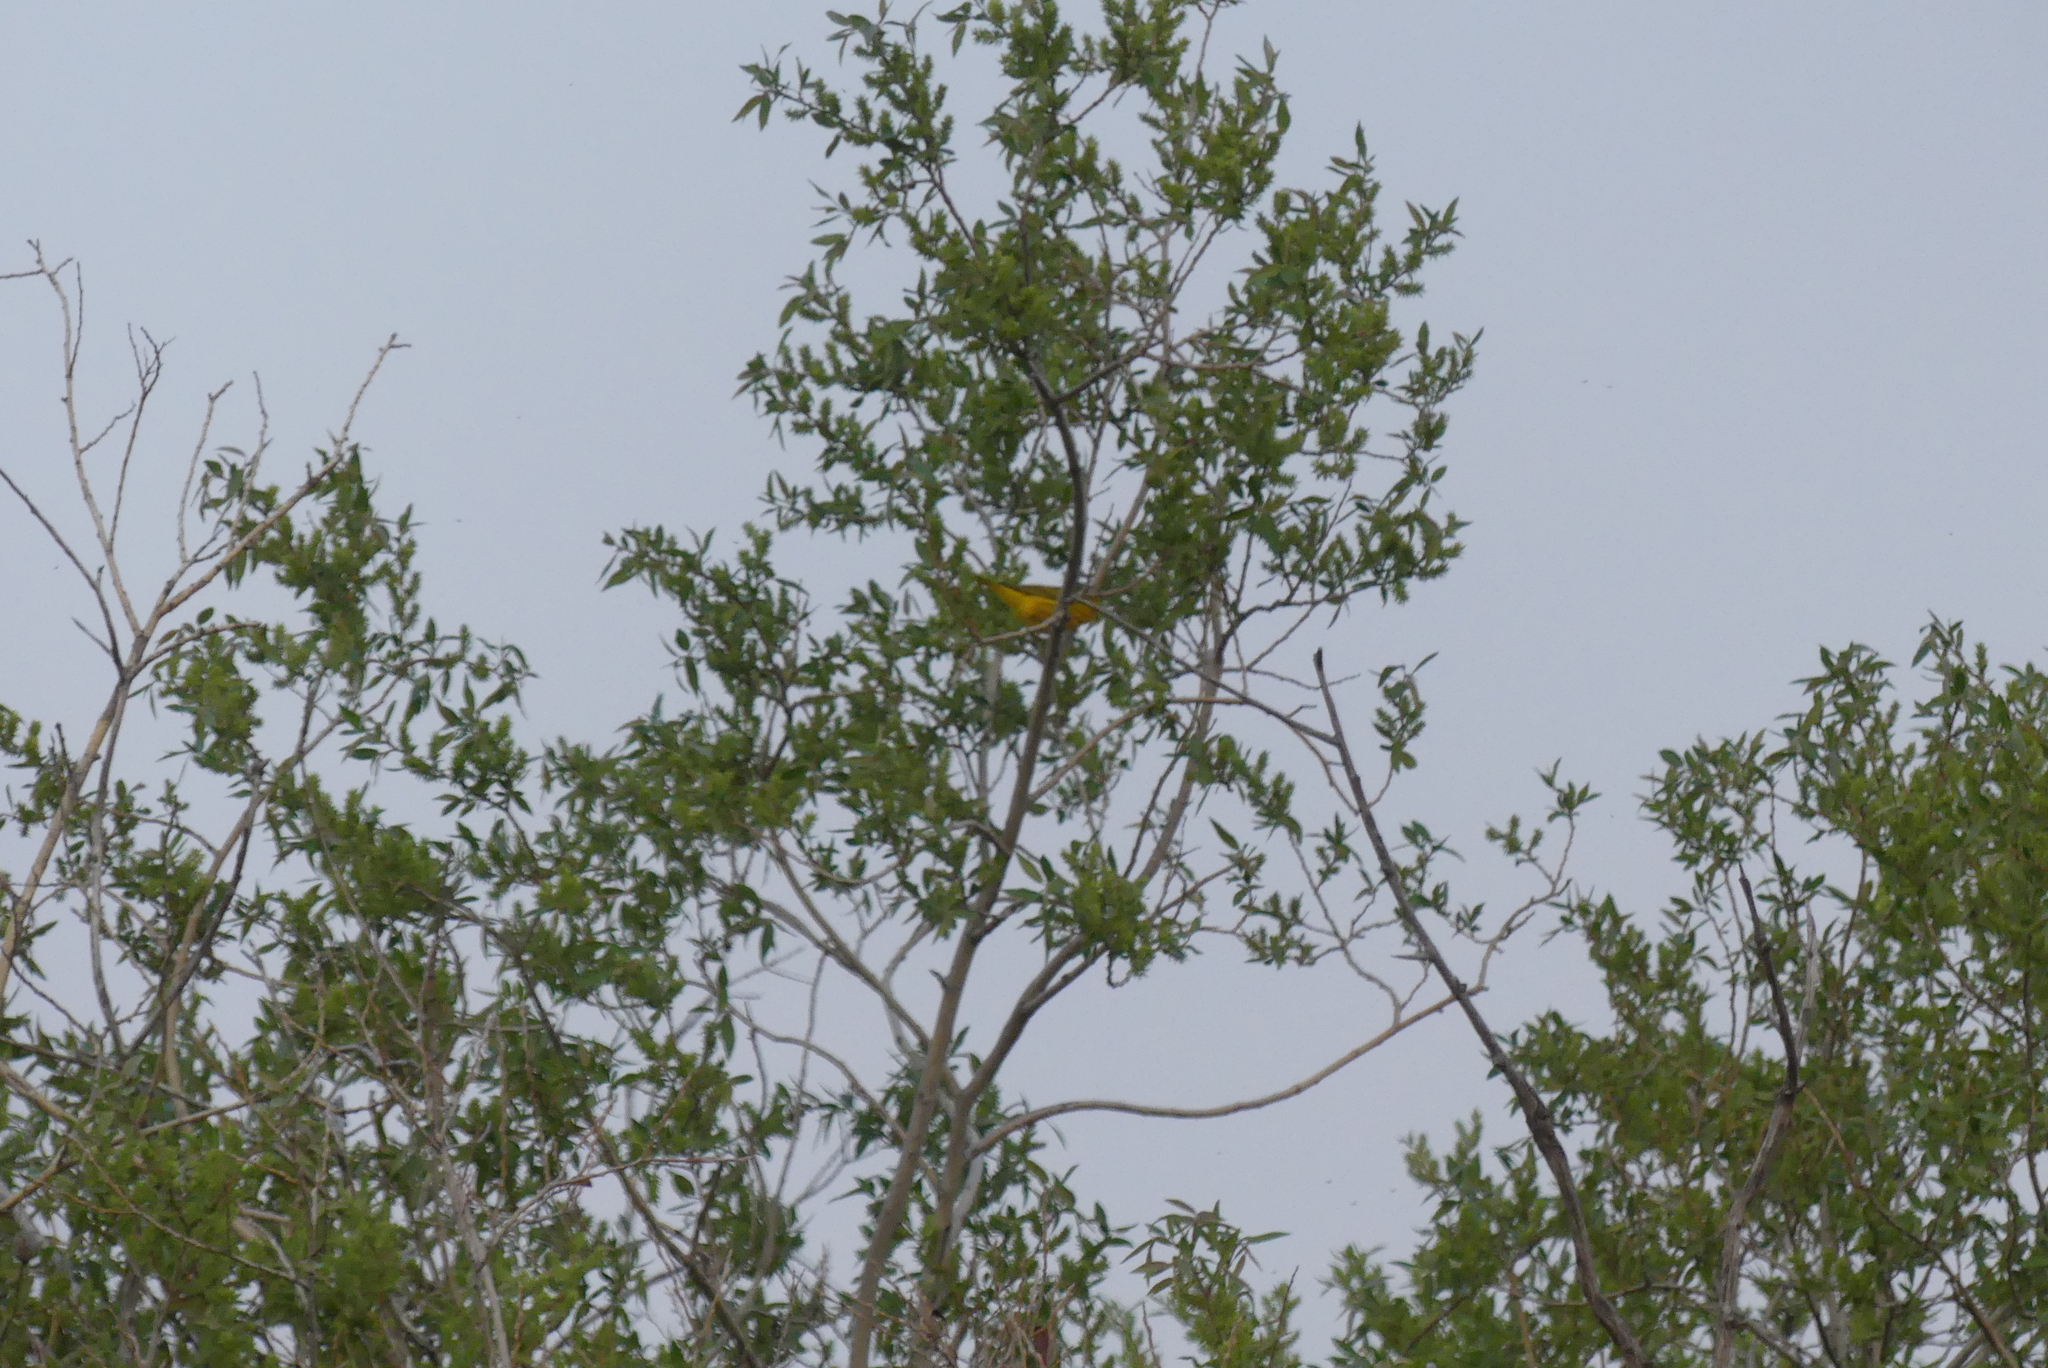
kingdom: Animalia
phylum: Chordata
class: Aves
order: Passeriformes
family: Parulidae
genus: Setophaga
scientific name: Setophaga petechia
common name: Yellow warbler
